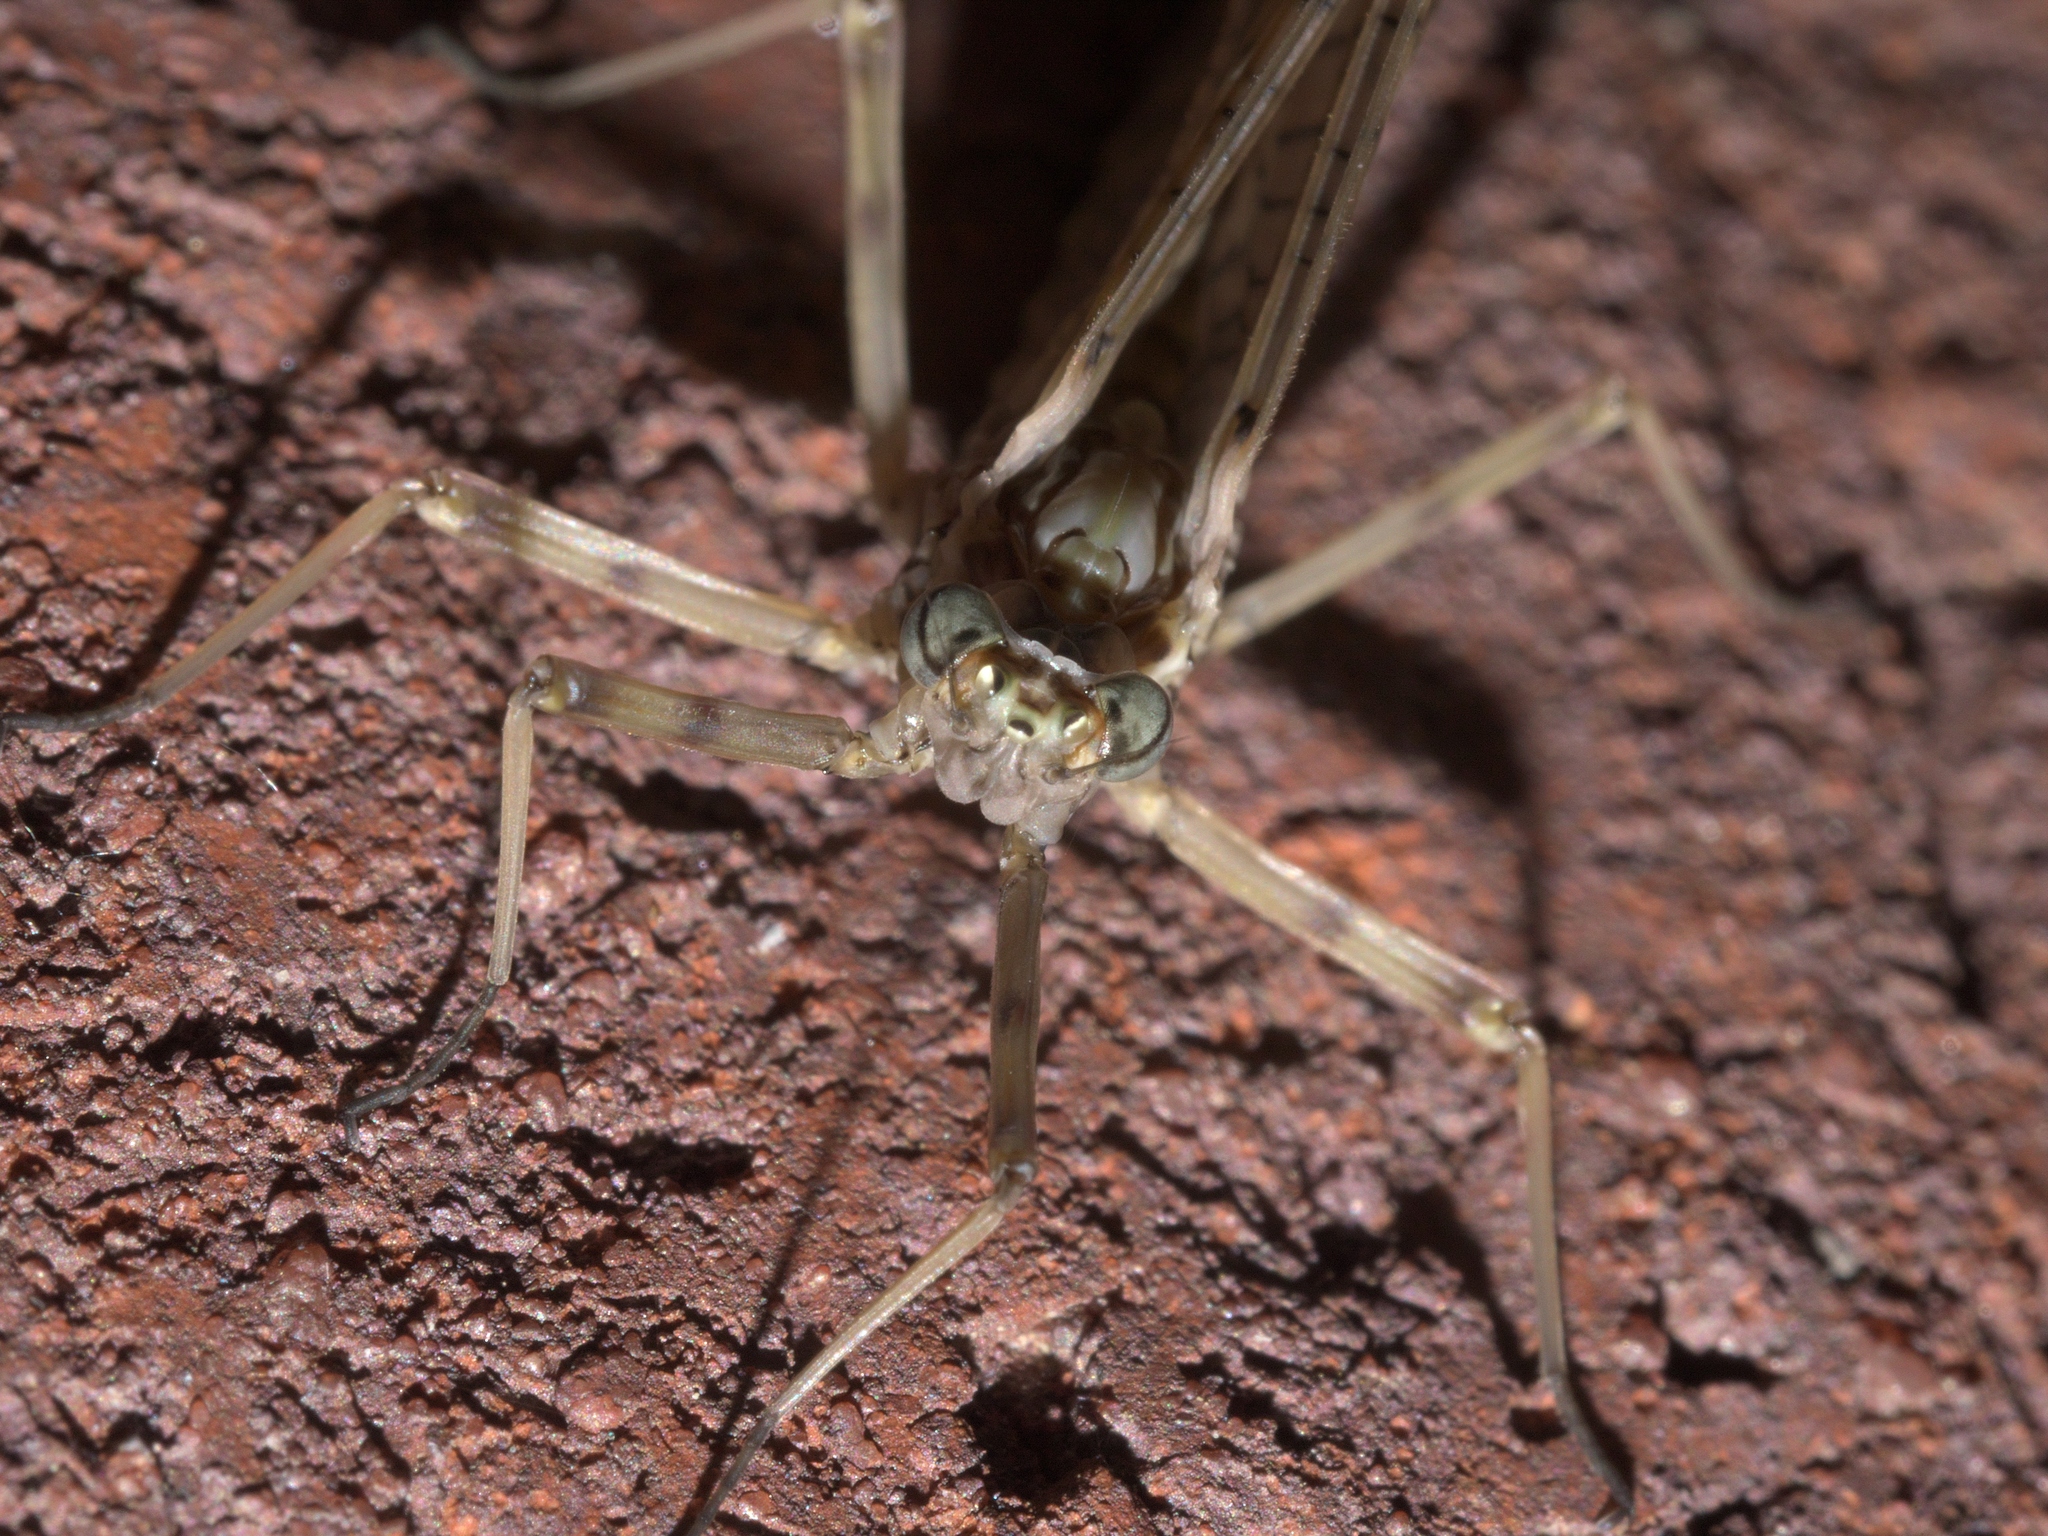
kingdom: Animalia
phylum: Arthropoda
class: Insecta
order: Ephemeroptera
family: Heptageniidae
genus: Stenonema
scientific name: Stenonema femoratum
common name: Dark cahill
